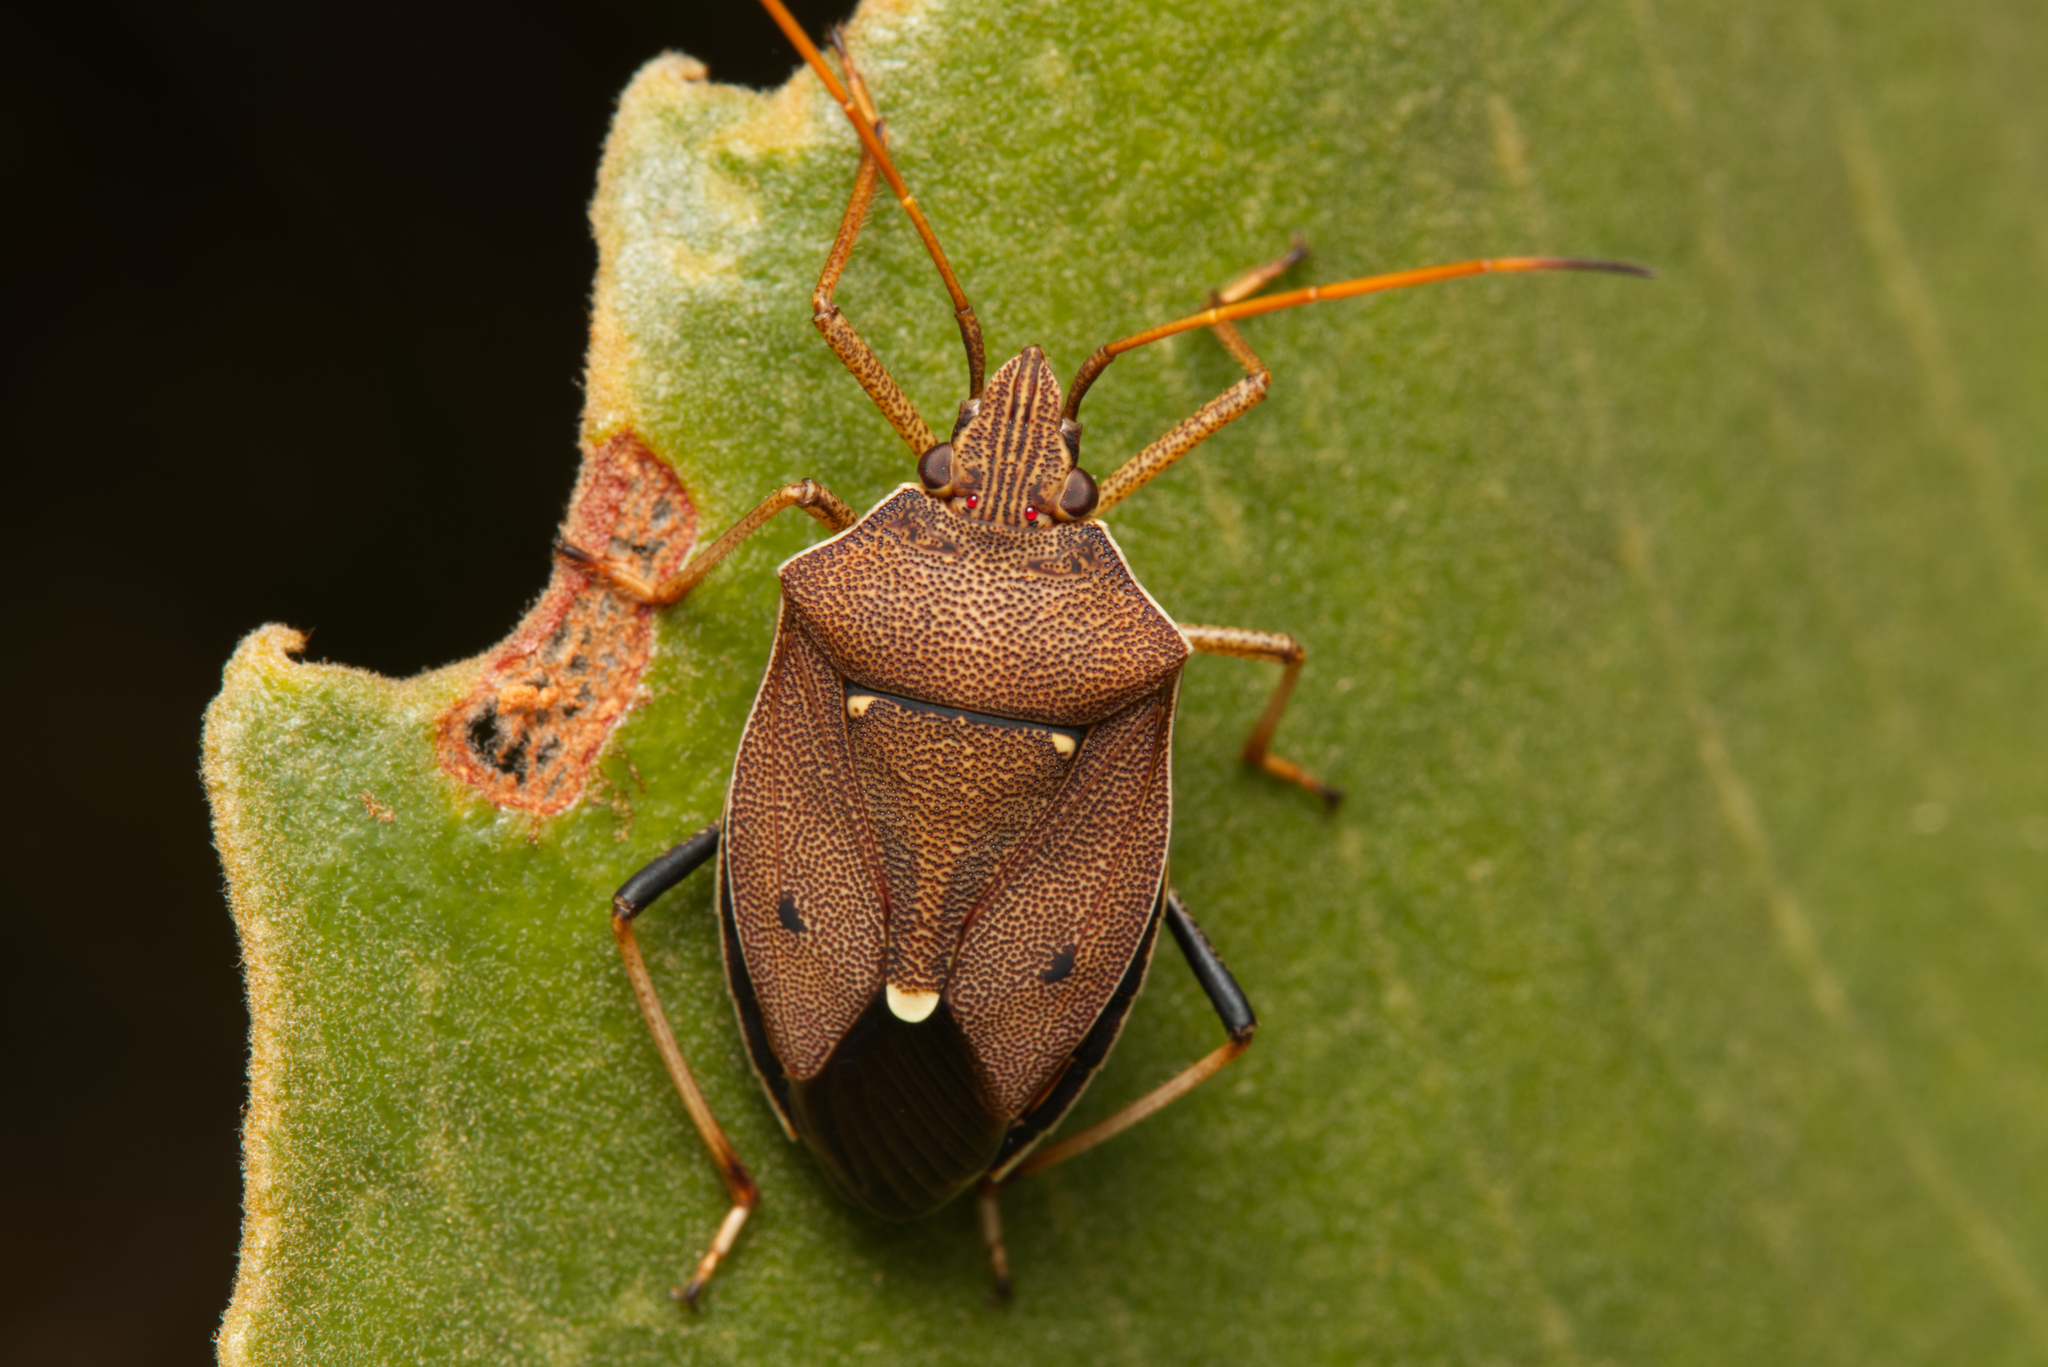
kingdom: Animalia
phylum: Arthropoda
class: Insecta
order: Hemiptera
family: Pentatomidae
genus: Poecilometis
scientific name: Poecilometis
